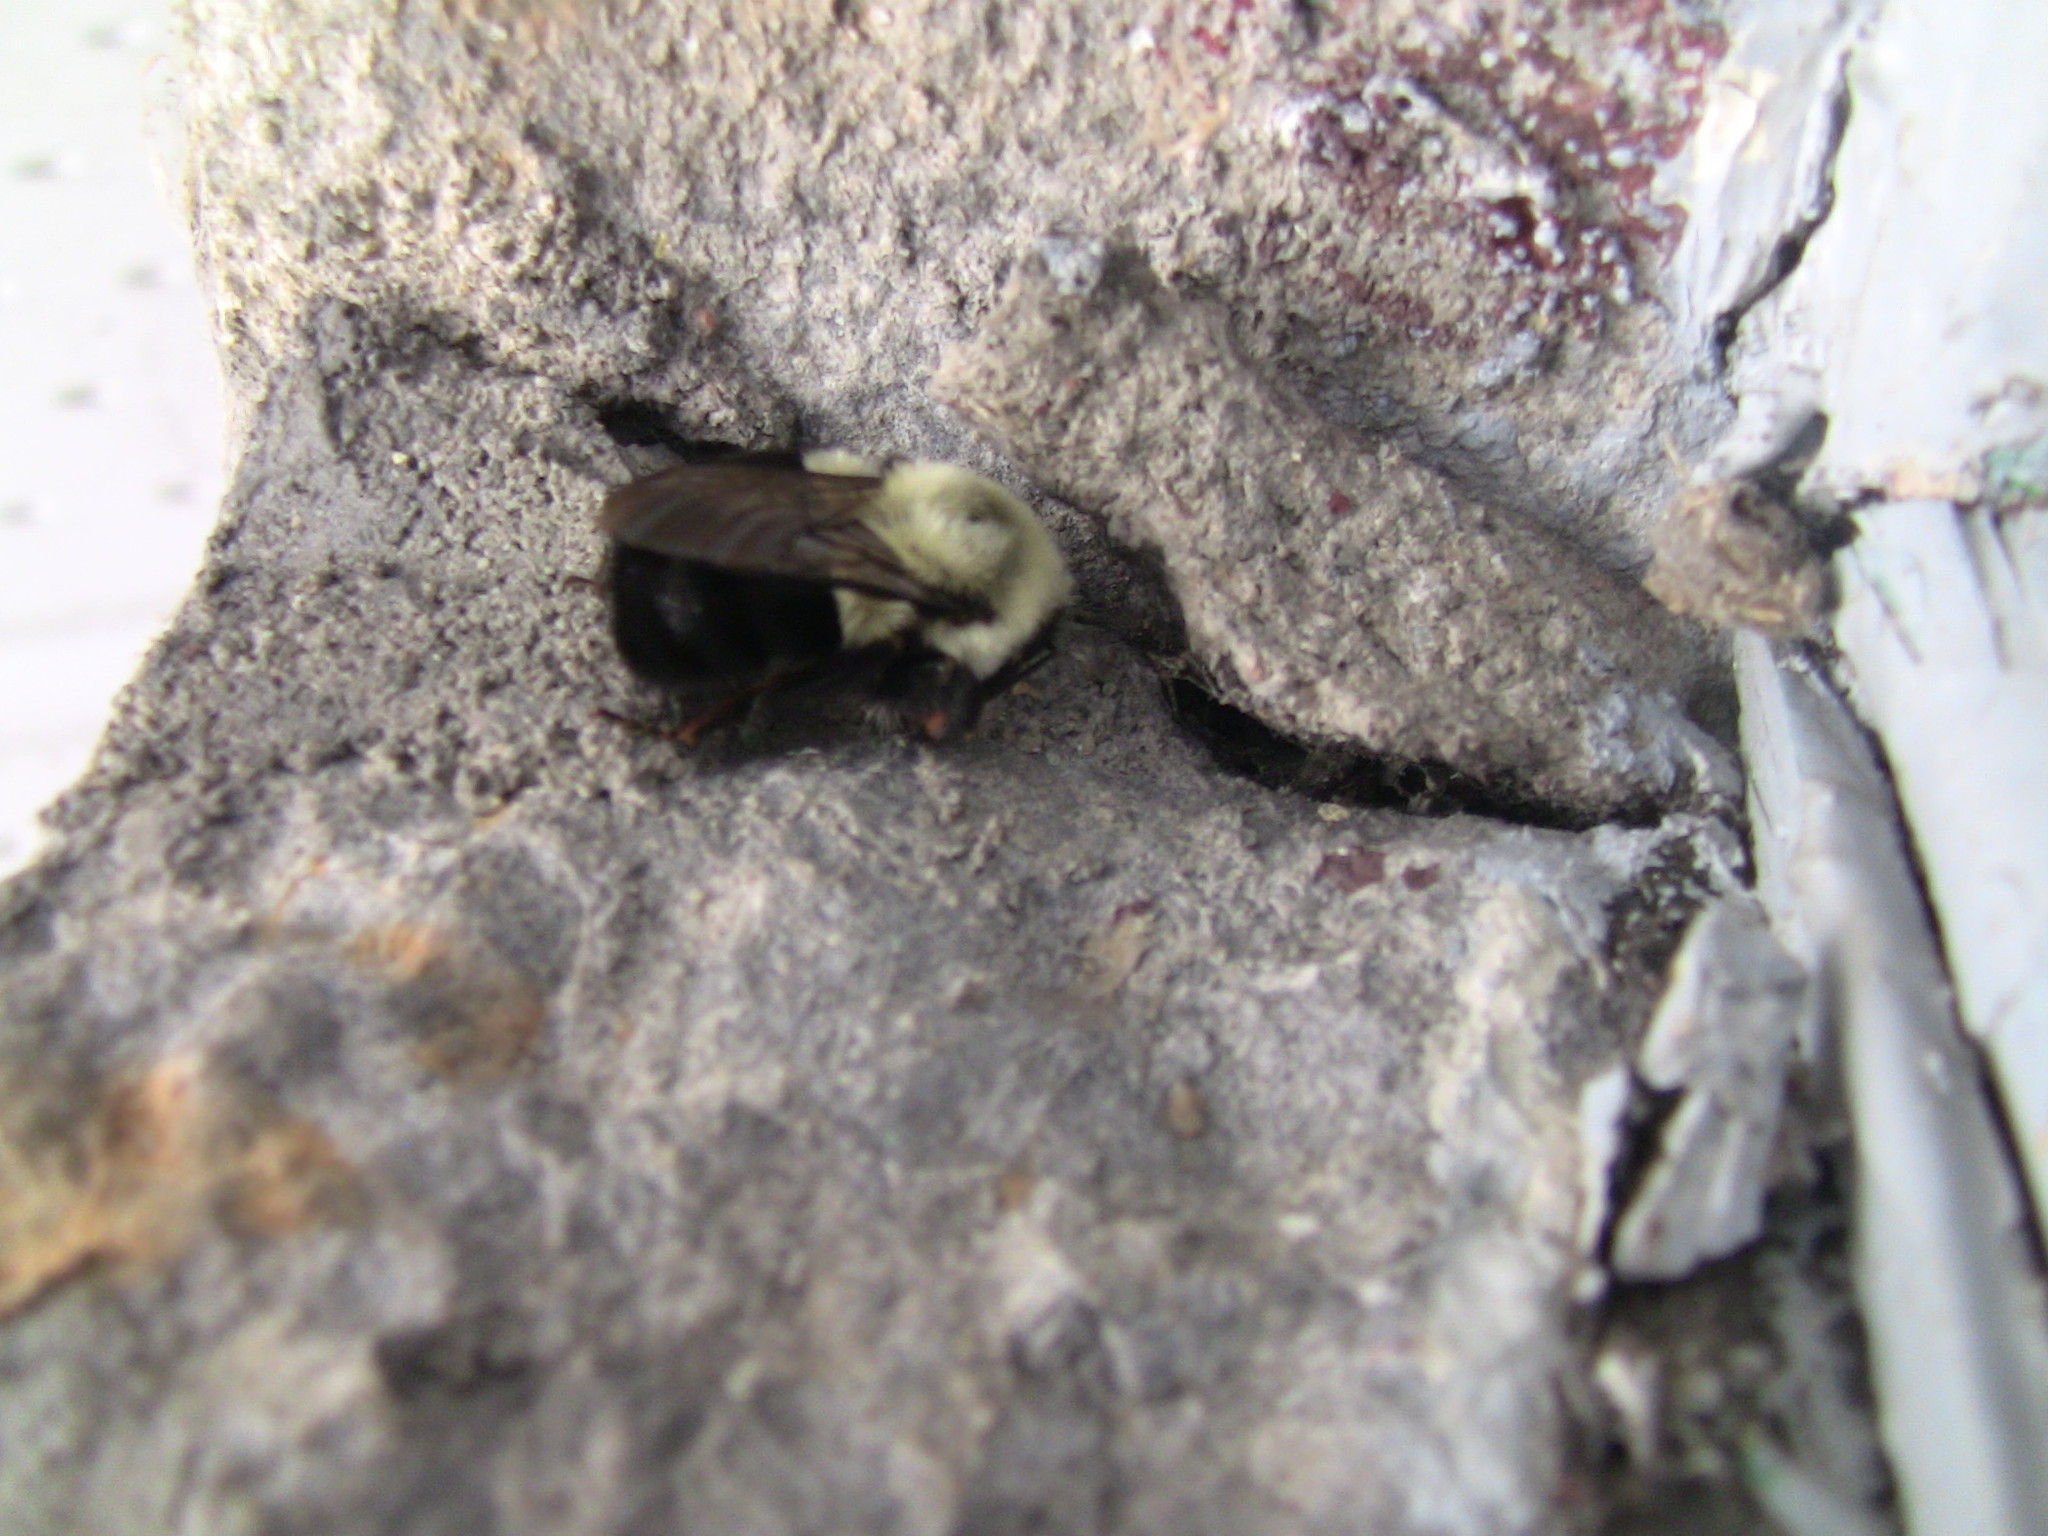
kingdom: Animalia
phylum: Arthropoda
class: Insecta
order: Hymenoptera
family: Apidae
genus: Bombus
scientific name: Bombus impatiens
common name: Common eastern bumble bee
